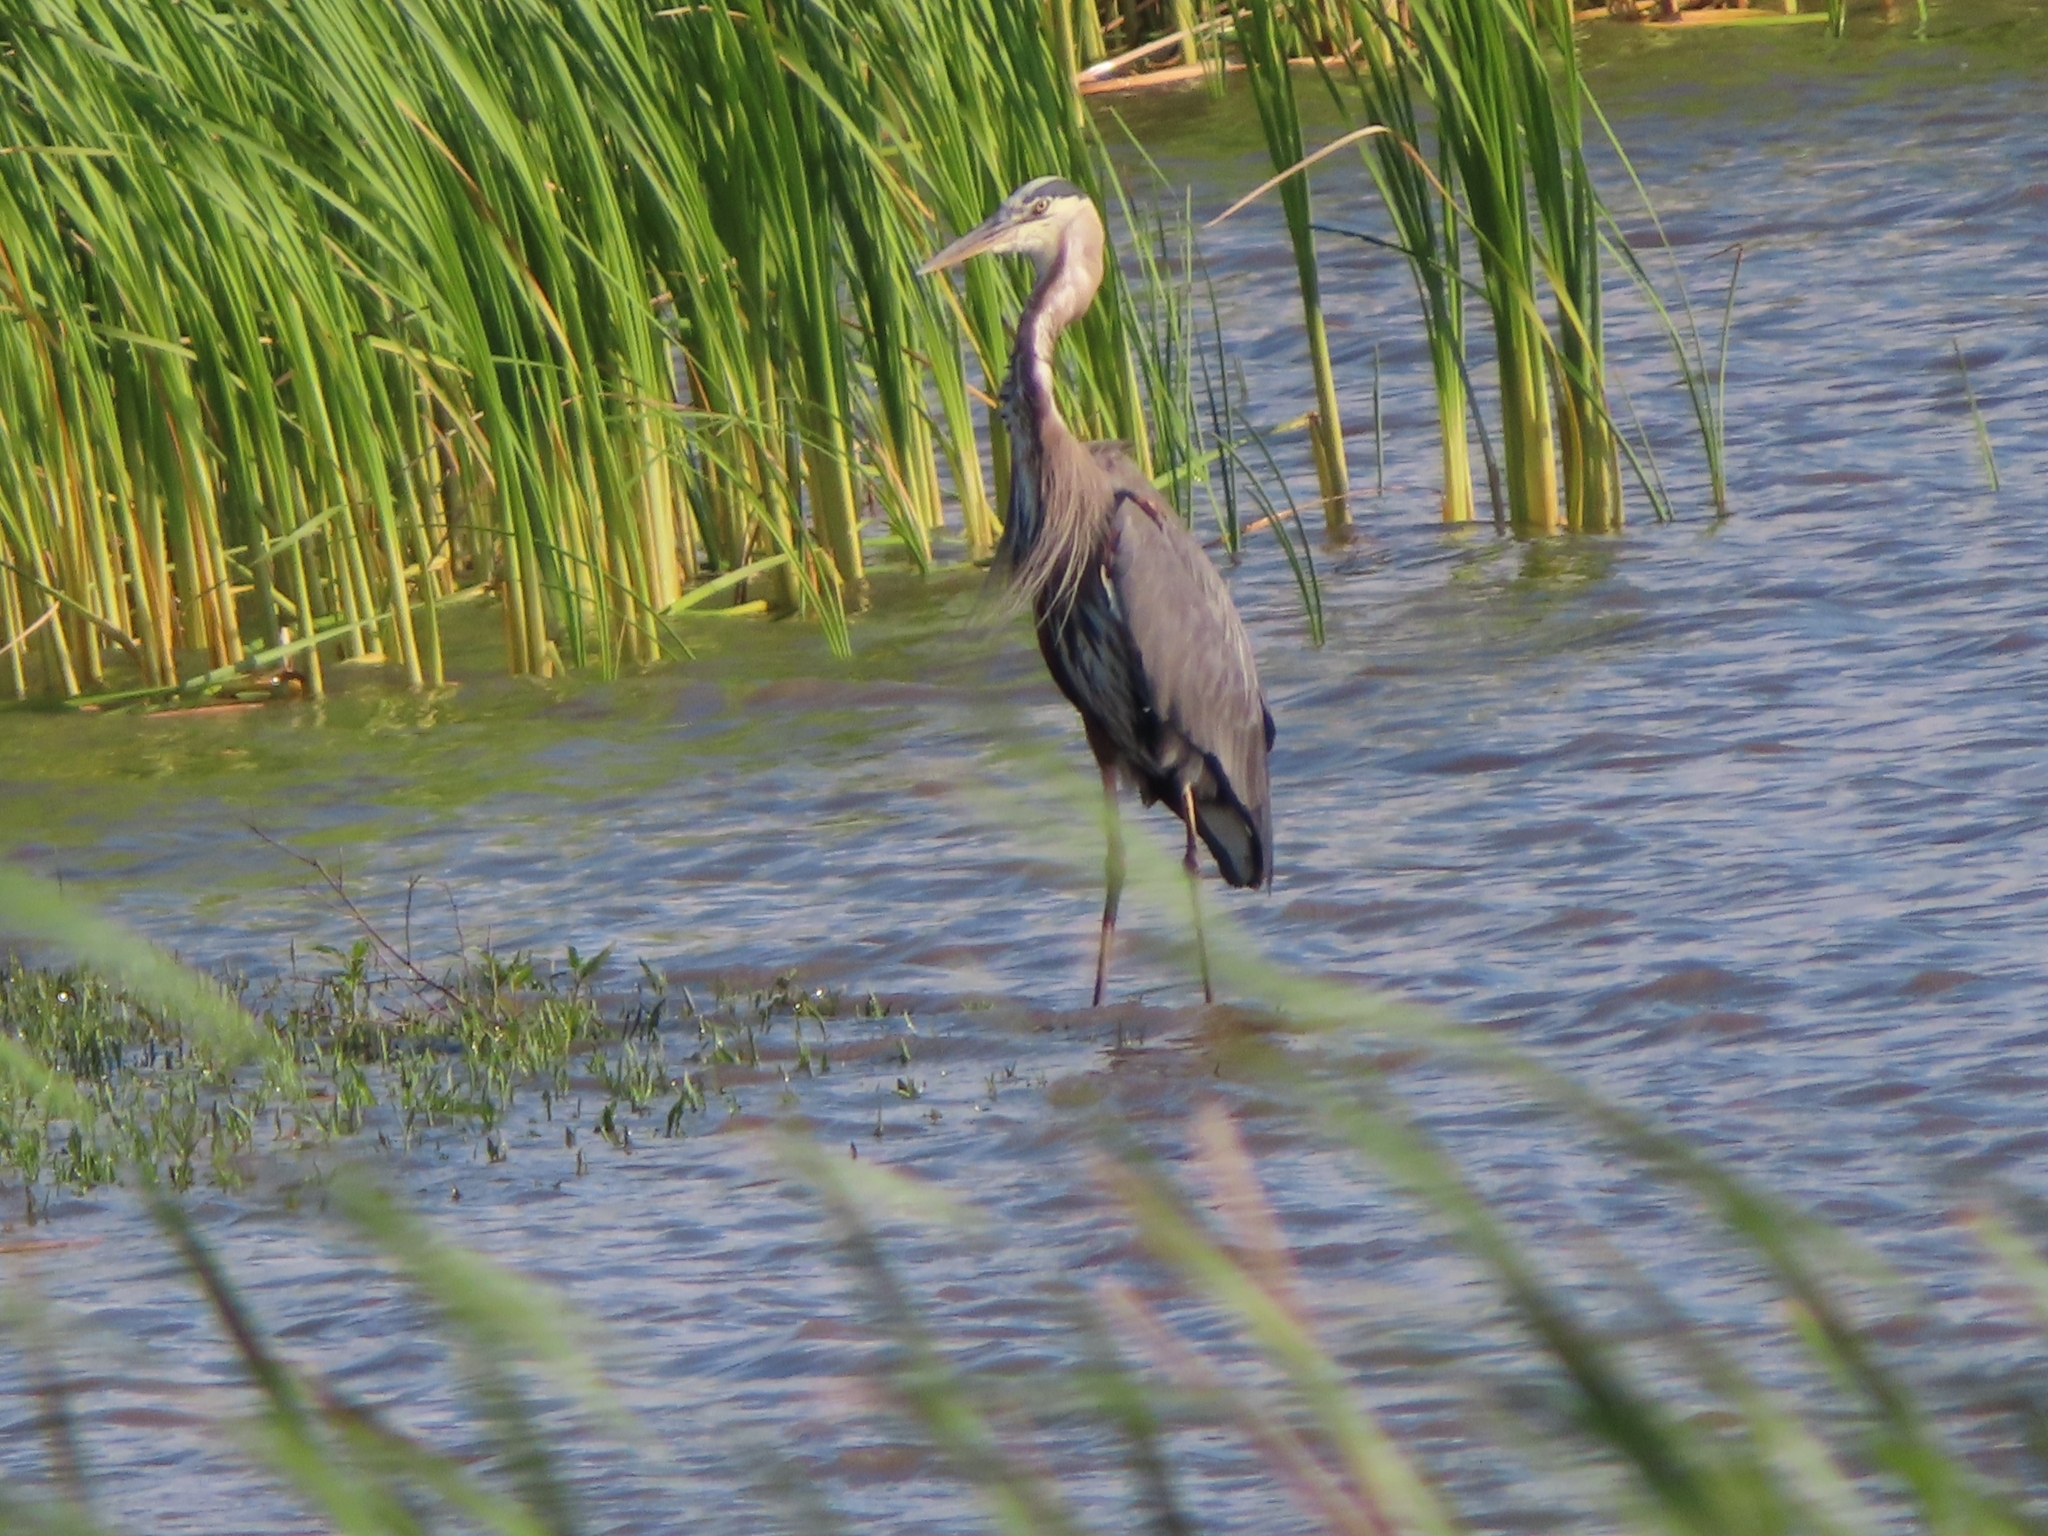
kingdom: Animalia
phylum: Chordata
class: Aves
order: Pelecaniformes
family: Ardeidae
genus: Ardea
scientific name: Ardea herodias
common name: Great blue heron
